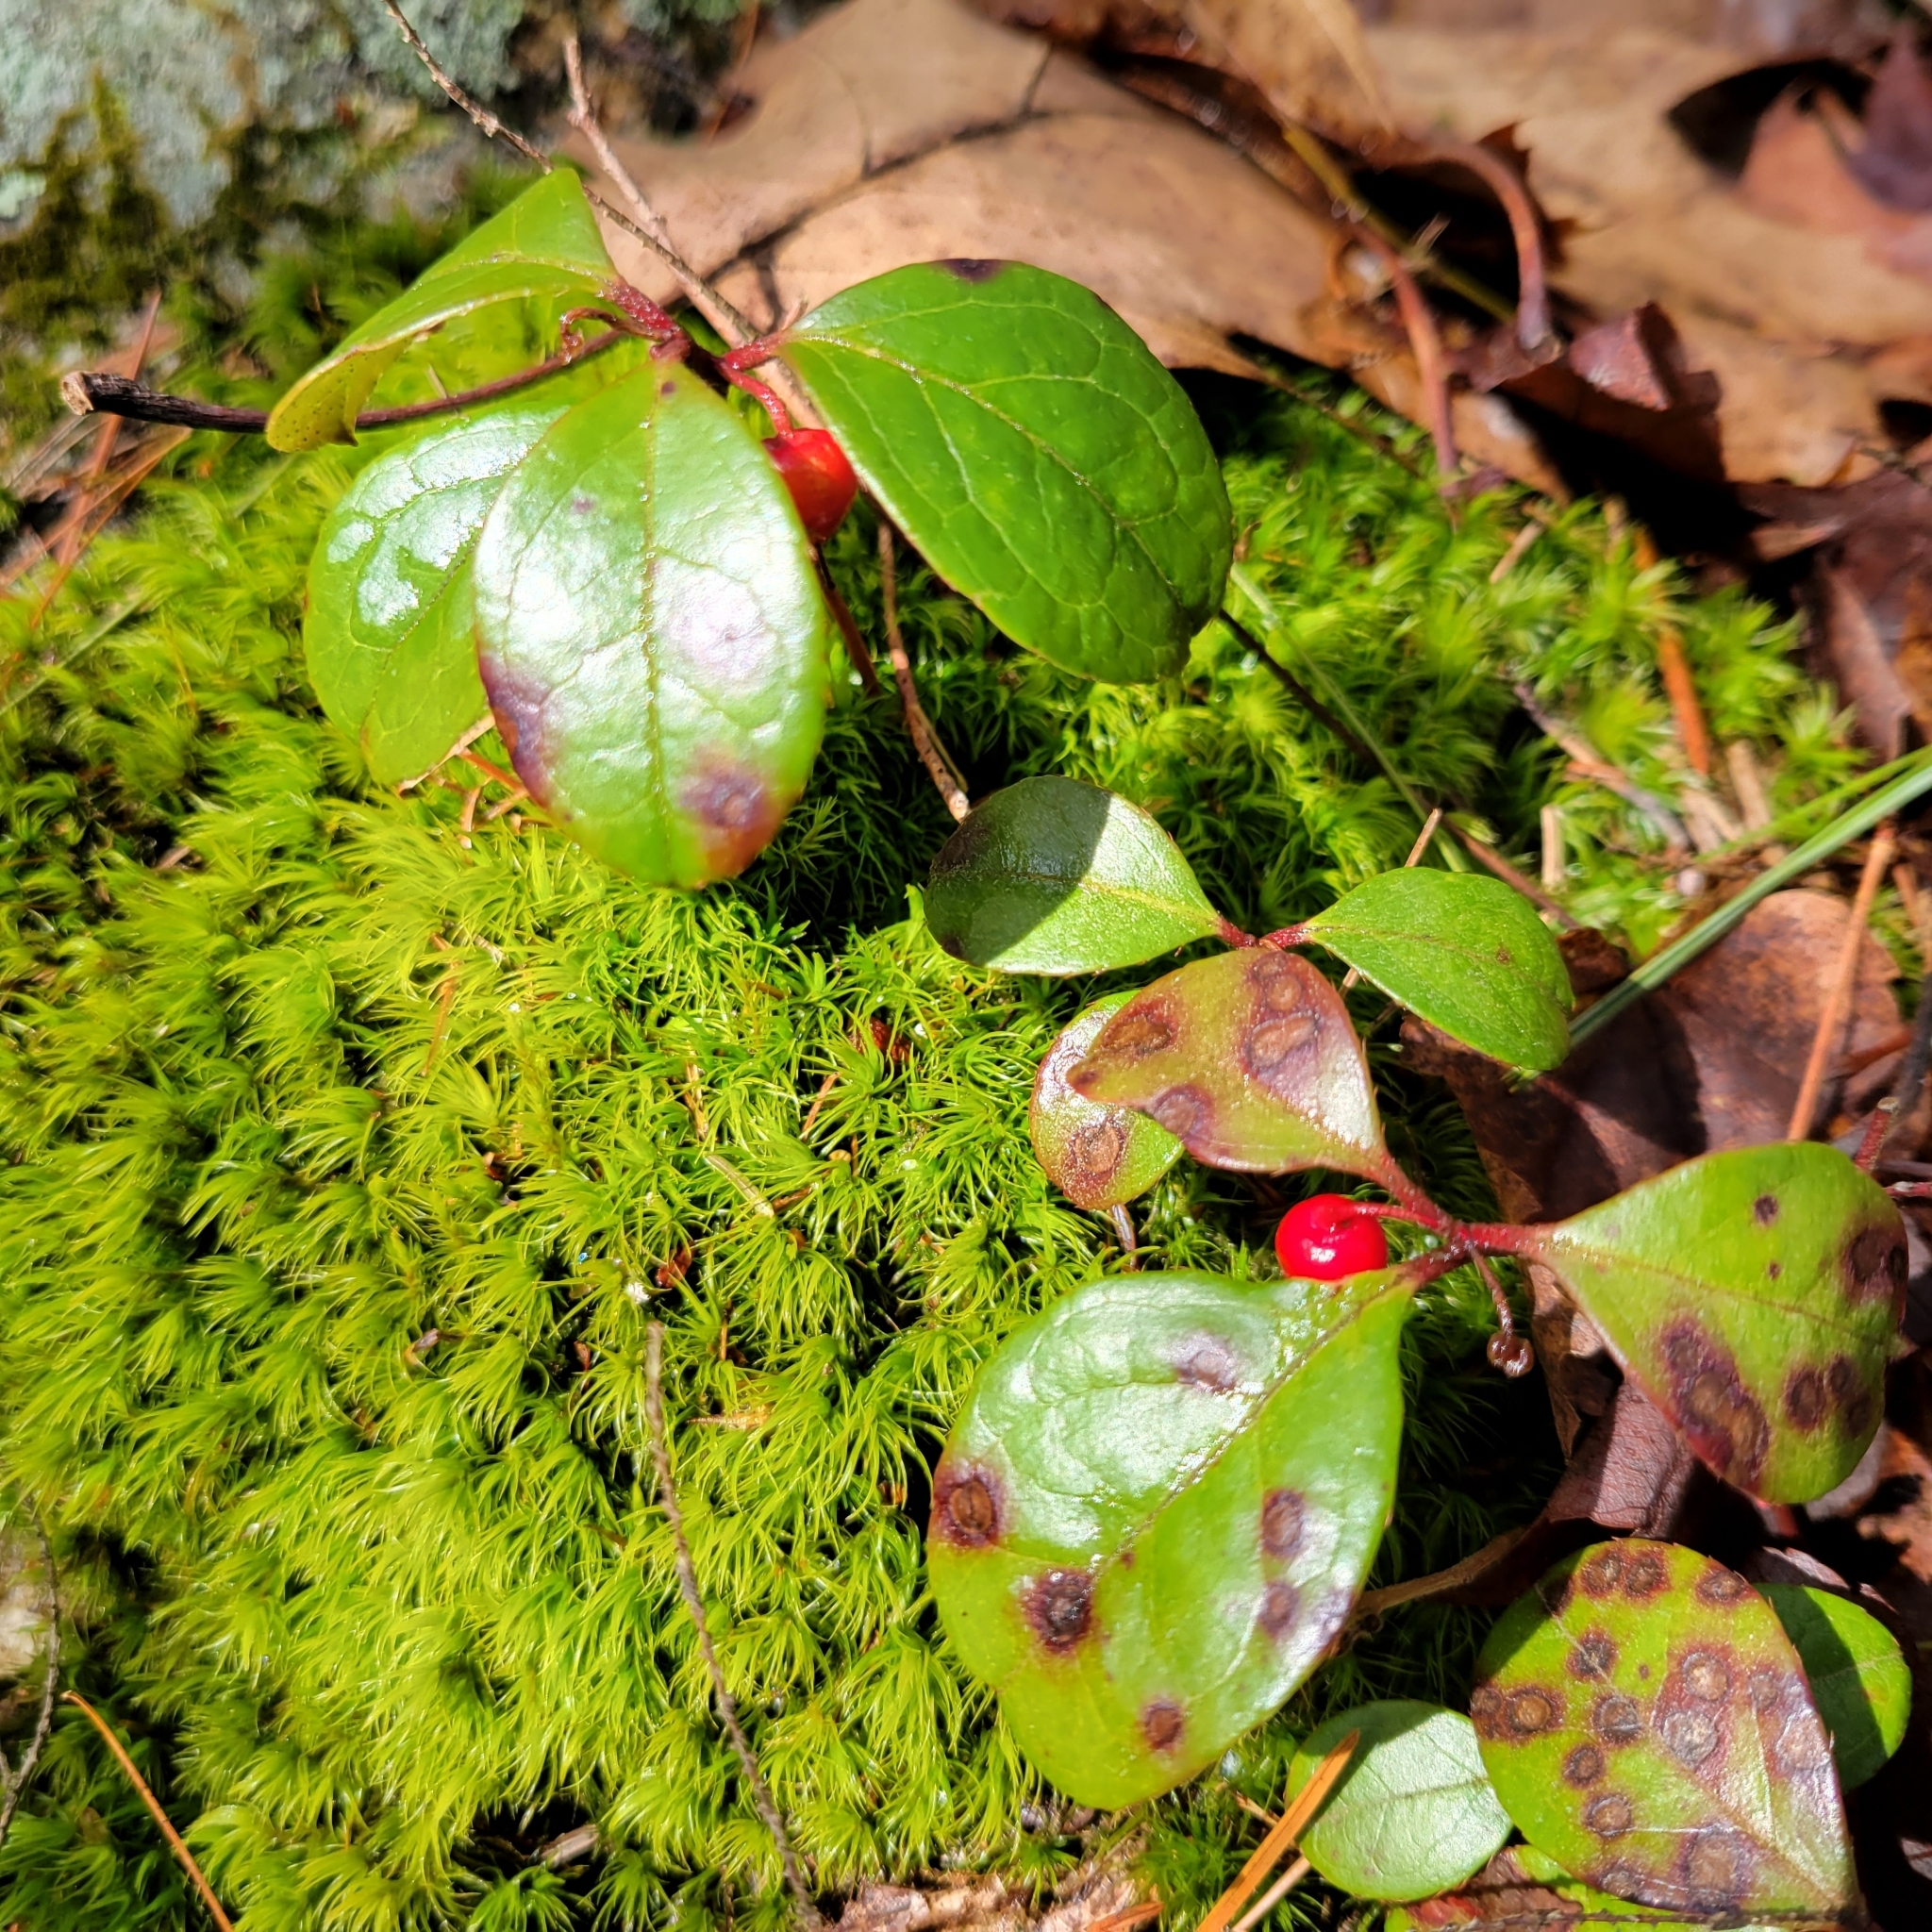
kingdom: Plantae
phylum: Tracheophyta
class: Magnoliopsida
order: Ericales
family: Ericaceae
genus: Gaultheria
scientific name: Gaultheria procumbens
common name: Checkerberry
